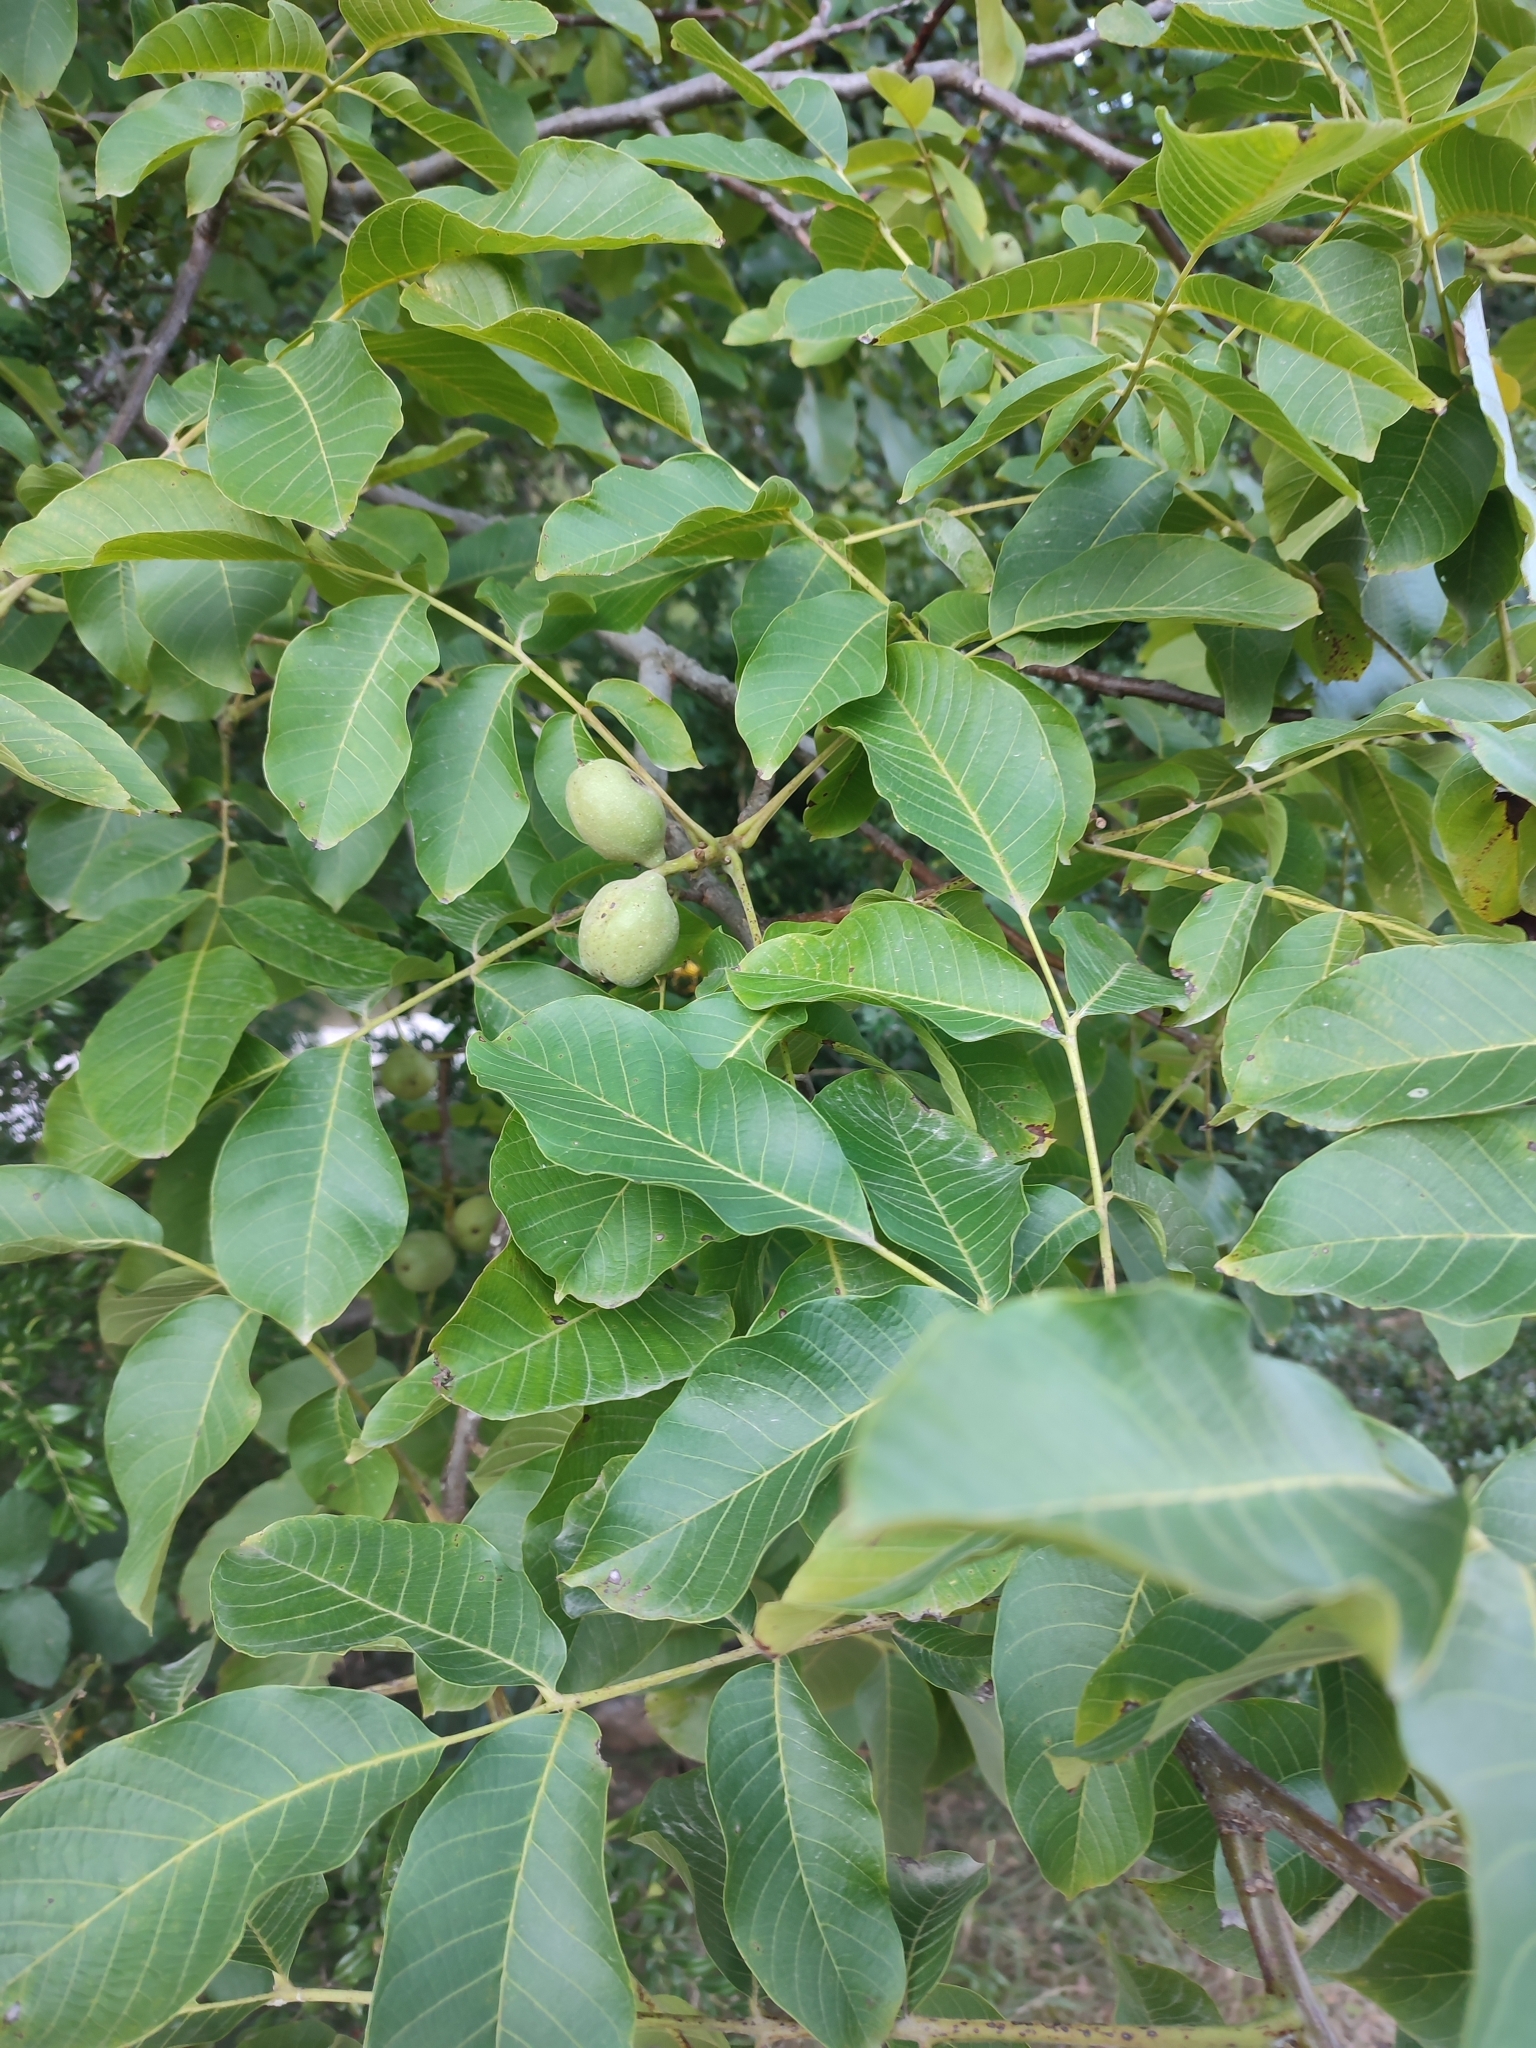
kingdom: Plantae
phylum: Tracheophyta
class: Magnoliopsida
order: Fagales
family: Juglandaceae
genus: Juglans
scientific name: Juglans regia
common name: Walnut
